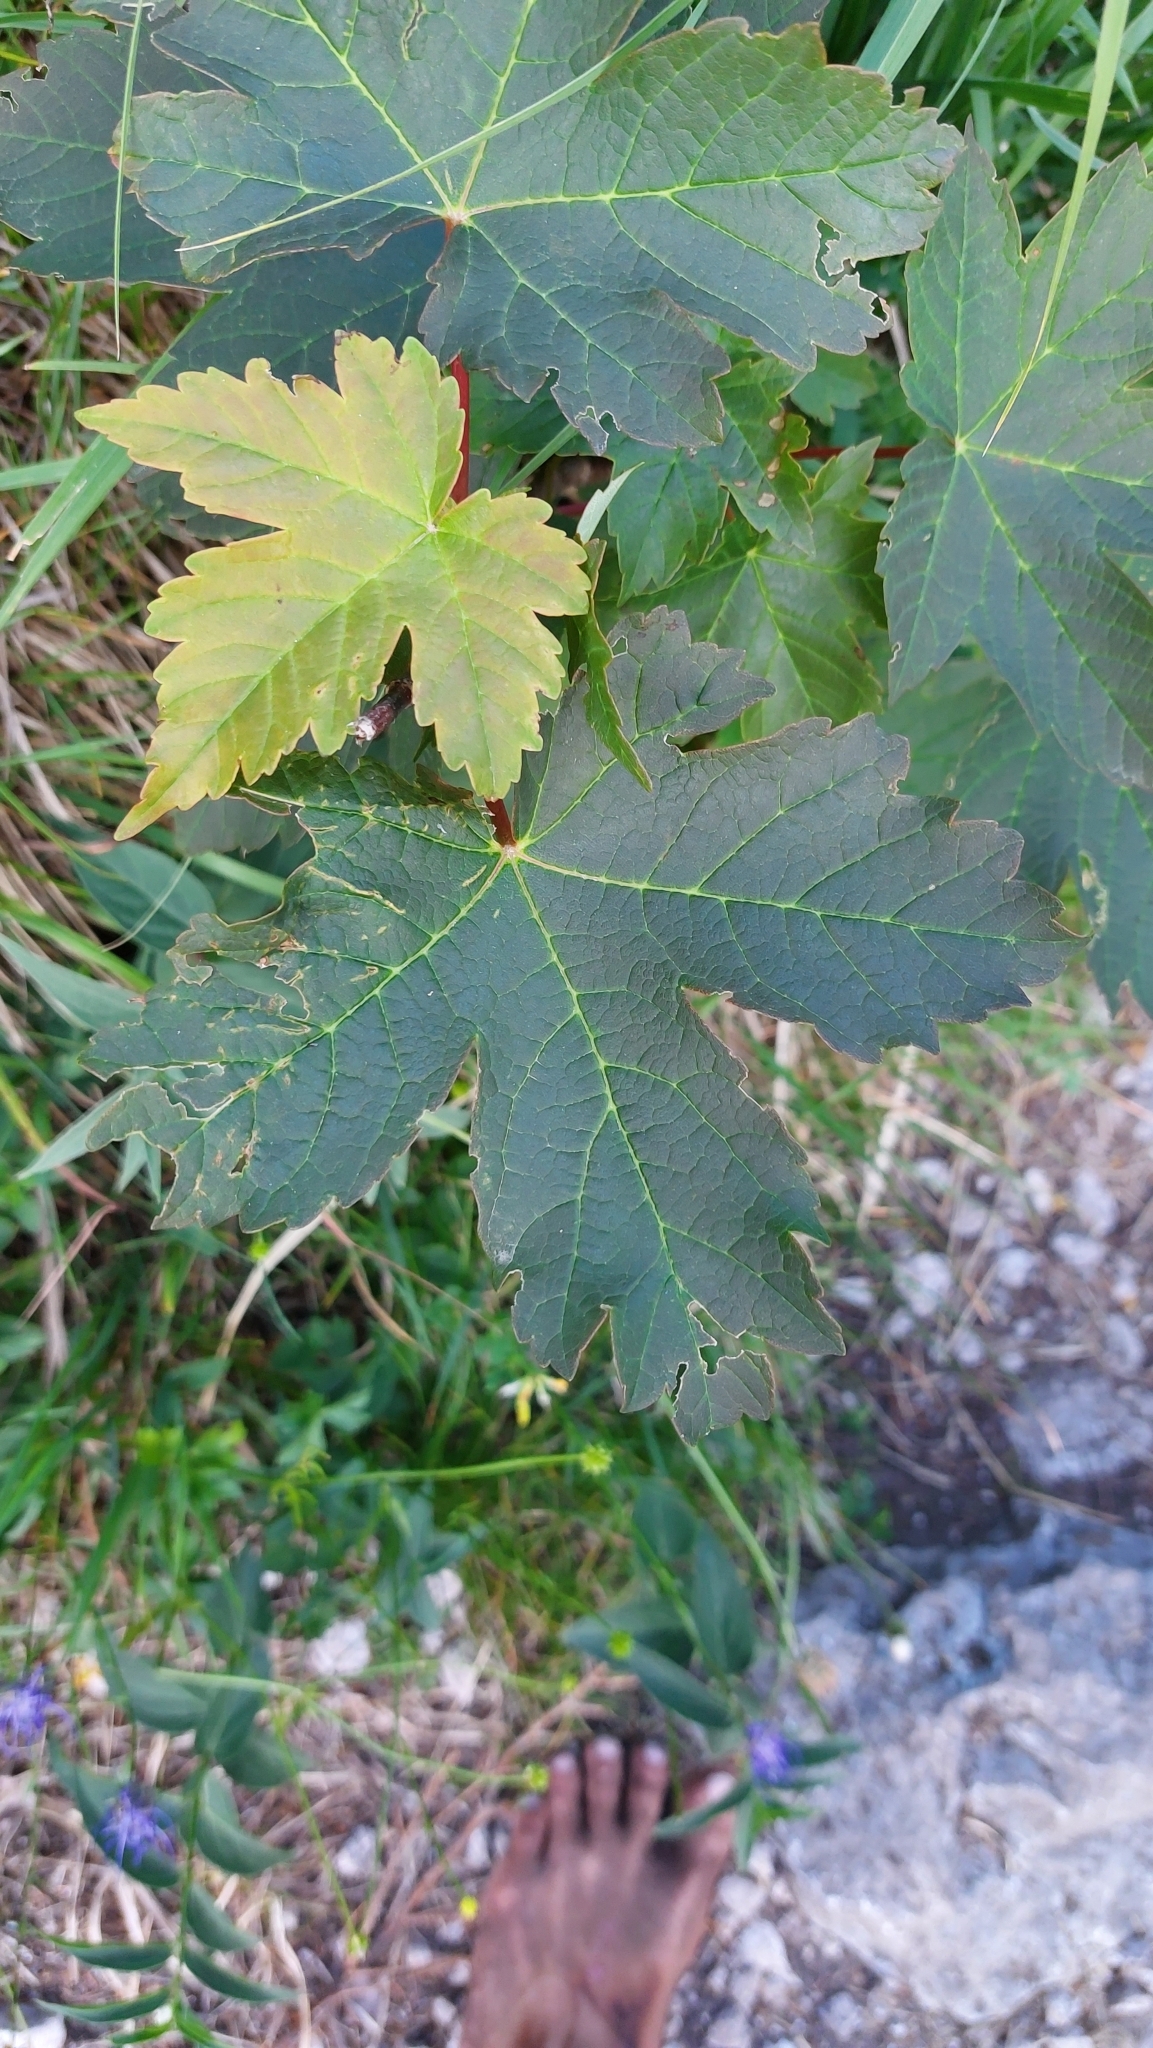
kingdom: Plantae
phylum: Tracheophyta
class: Magnoliopsida
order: Sapindales
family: Sapindaceae
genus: Acer
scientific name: Acer pseudoplatanus
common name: Sycamore
